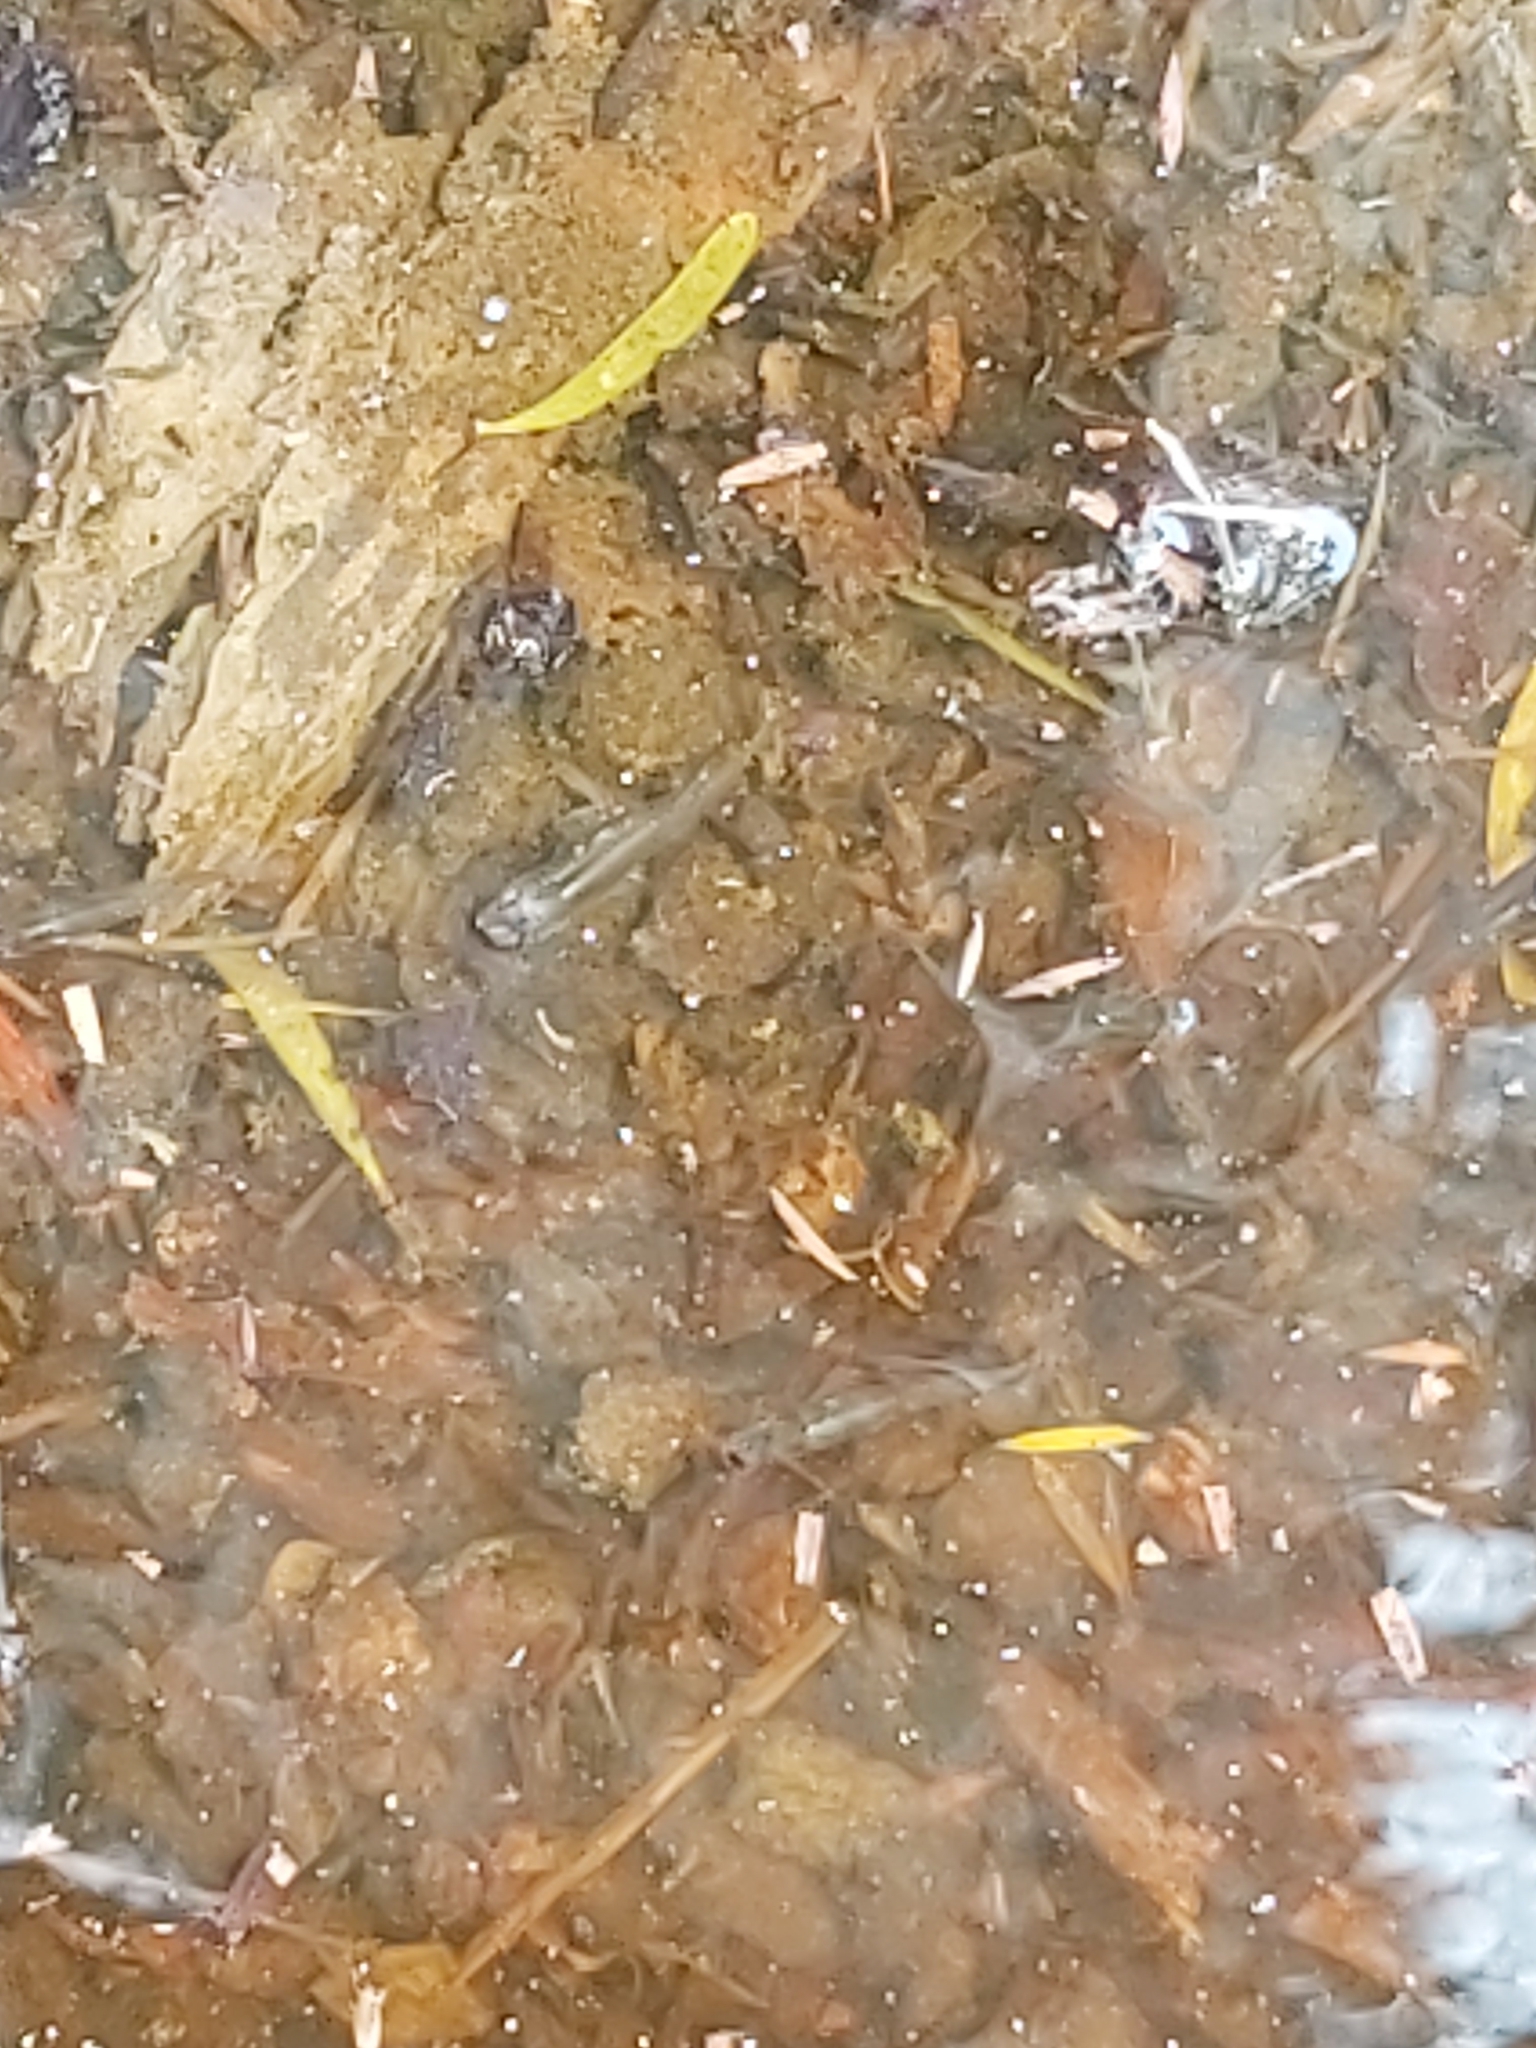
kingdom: Animalia
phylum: Chordata
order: Cyprinodontiformes
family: Poeciliidae
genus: Gambusia
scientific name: Gambusia holbrooki
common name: Eastern mosquitofish
